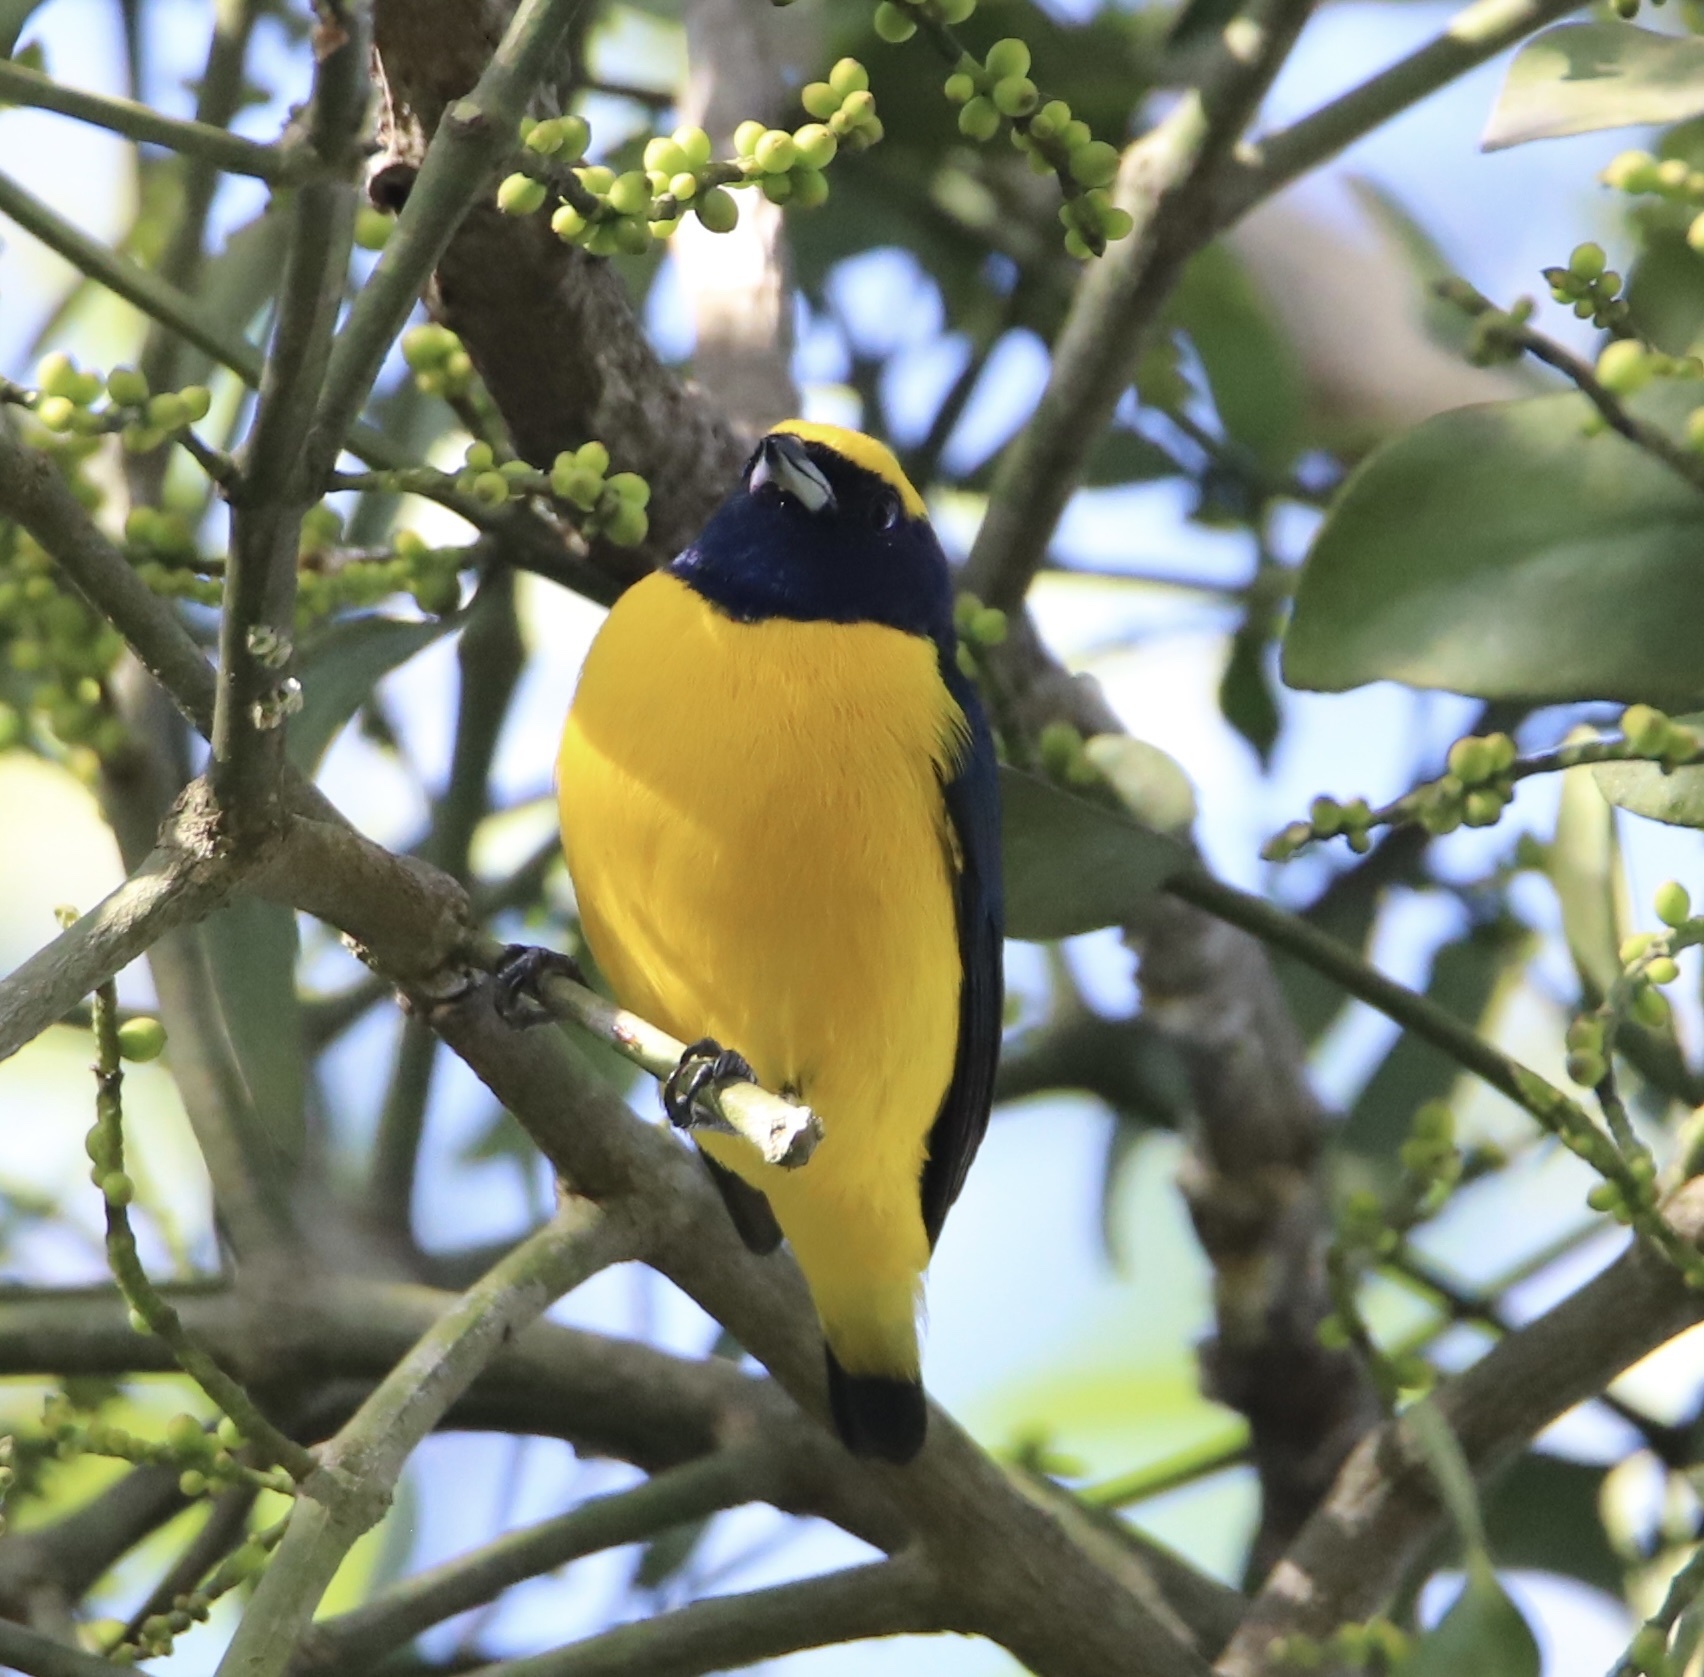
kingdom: Animalia
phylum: Chordata
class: Aves
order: Passeriformes
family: Fringillidae
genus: Euphonia
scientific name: Euphonia luteicapilla
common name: Yellow-crowned euphonia
